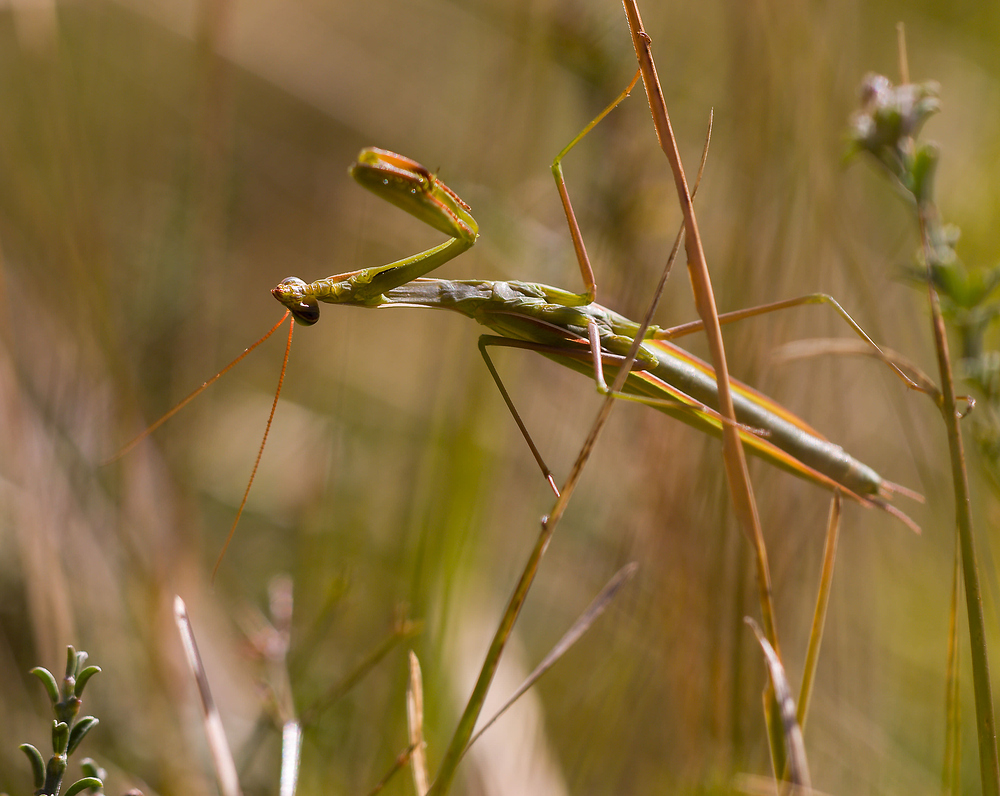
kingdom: Animalia
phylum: Arthropoda
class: Insecta
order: Mantodea
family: Mantidae
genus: Mantis
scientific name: Mantis religiosa
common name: Praying mantis
